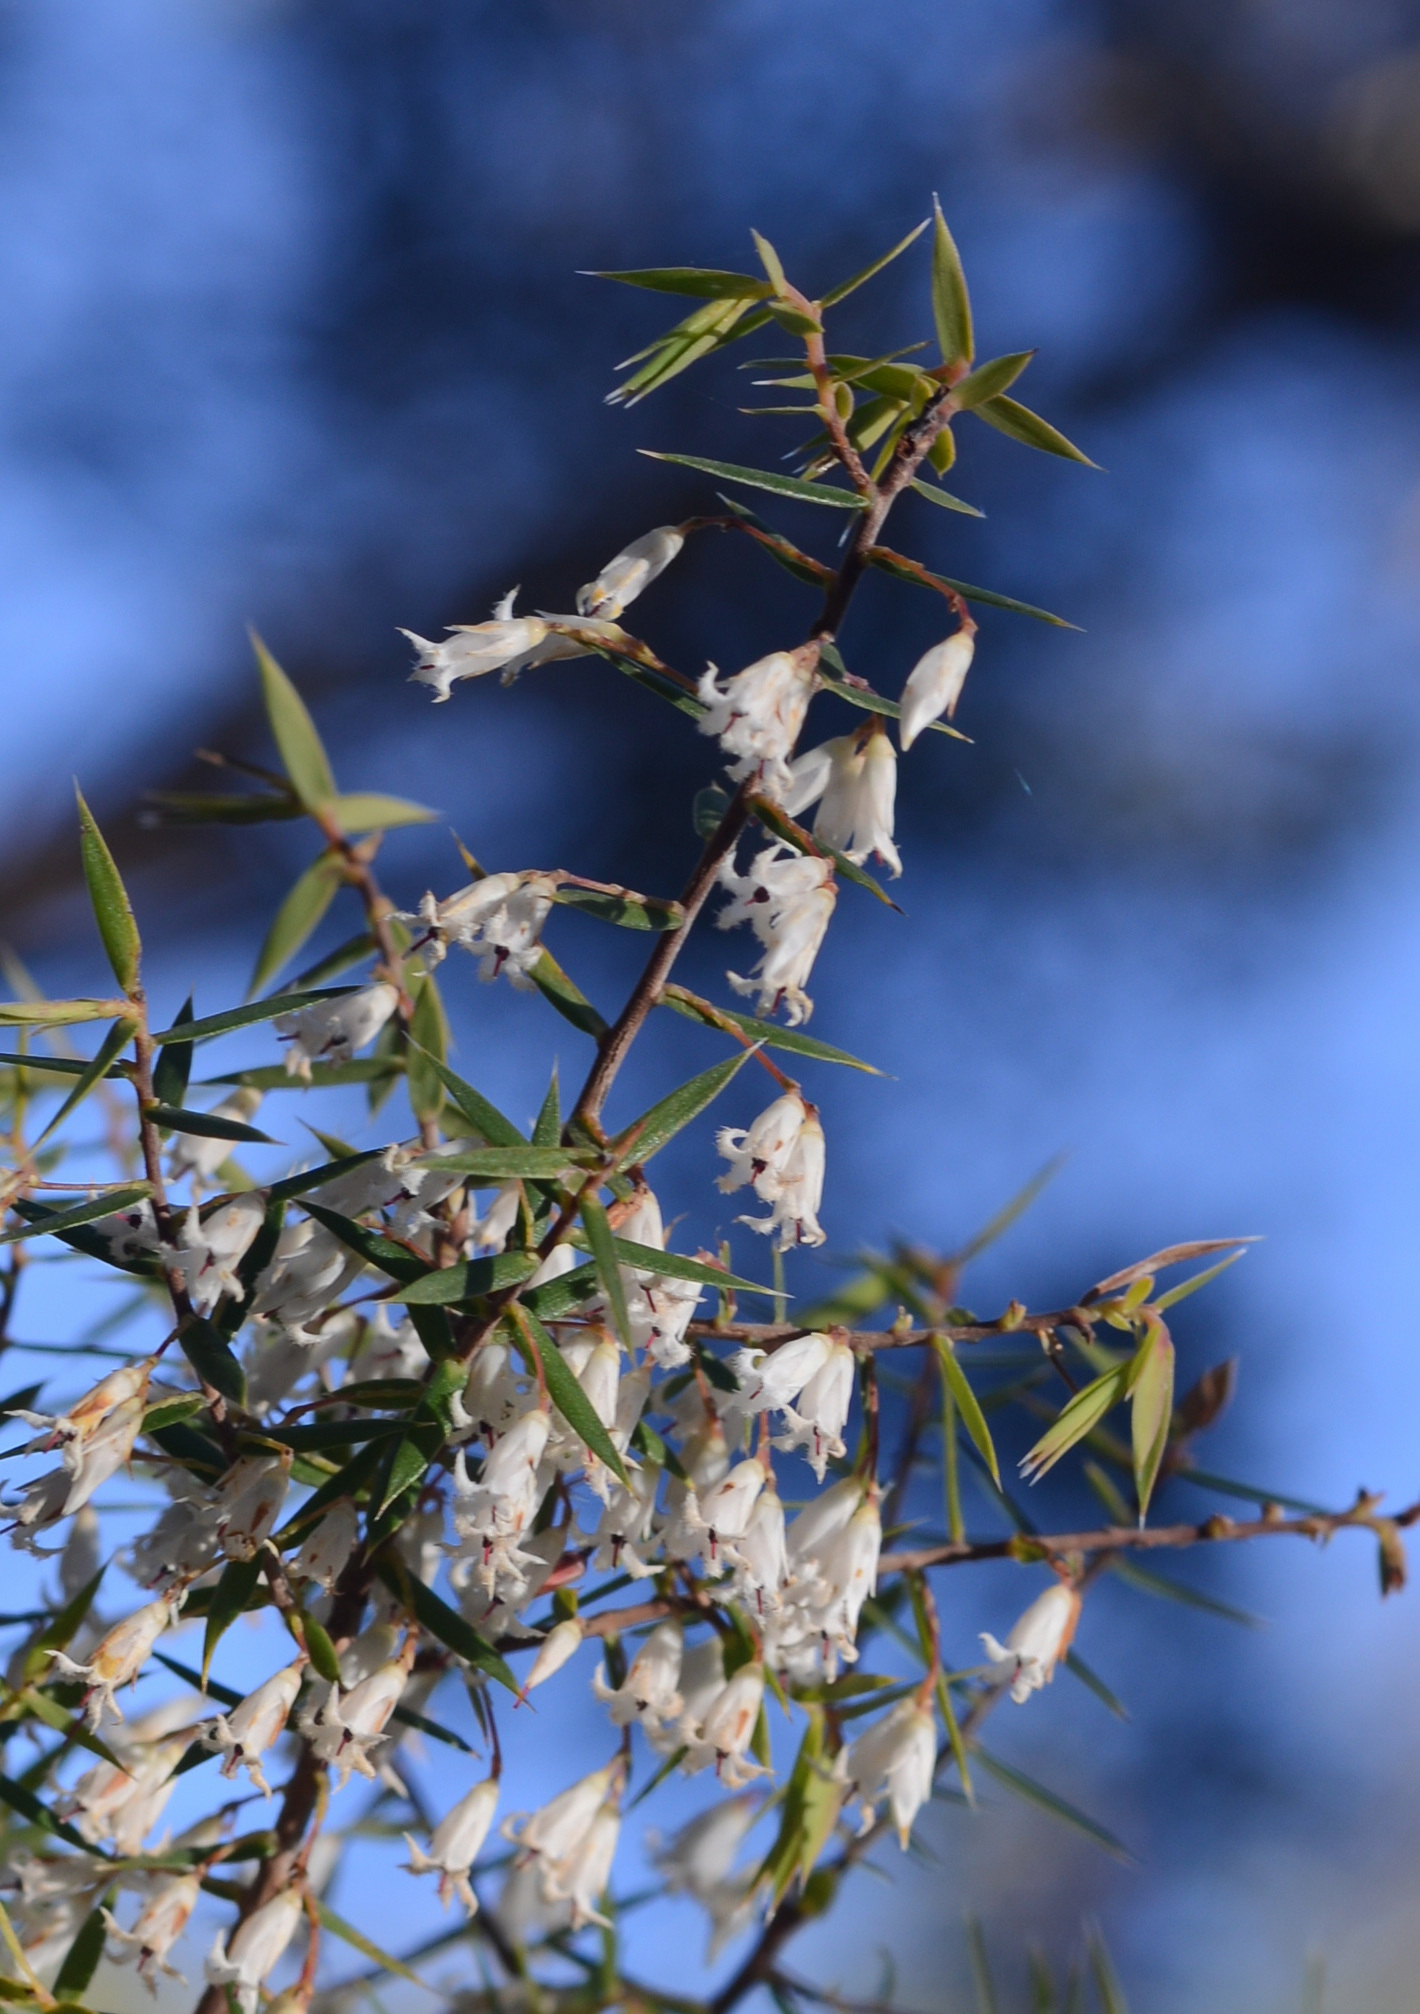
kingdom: Plantae
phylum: Tracheophyta
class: Magnoliopsida
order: Ericales
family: Ericaceae
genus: Styphelia
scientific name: Styphelia setigera
